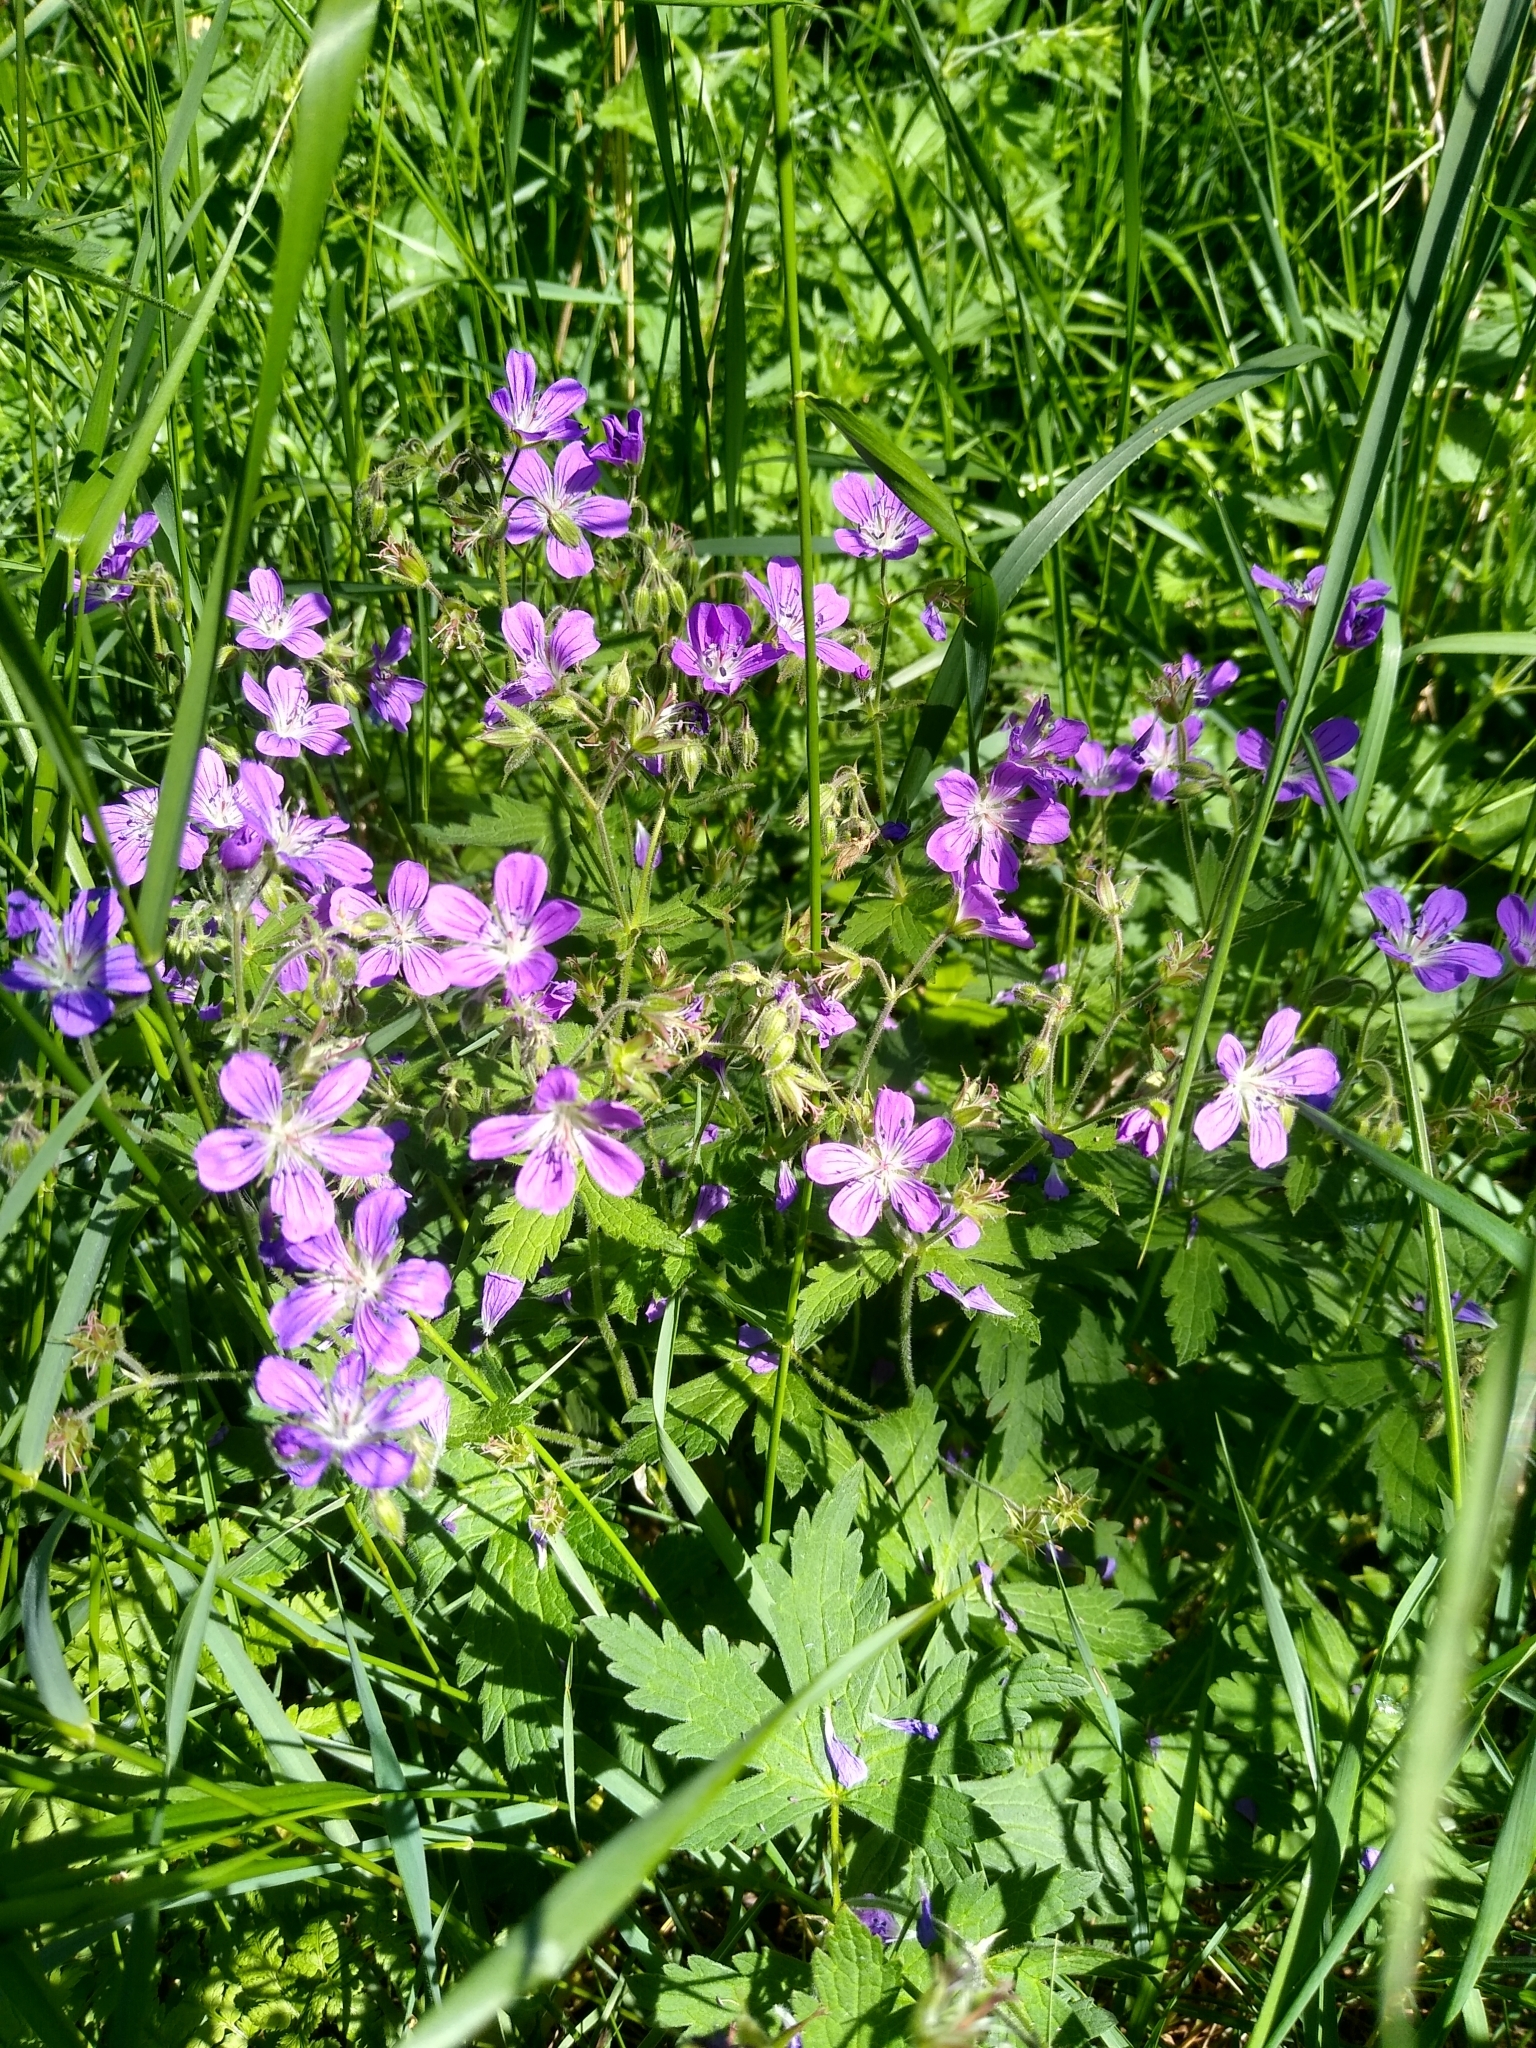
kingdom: Plantae
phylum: Tracheophyta
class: Magnoliopsida
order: Geraniales
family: Geraniaceae
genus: Geranium
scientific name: Geranium sylvaticum
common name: Wood crane's-bill
